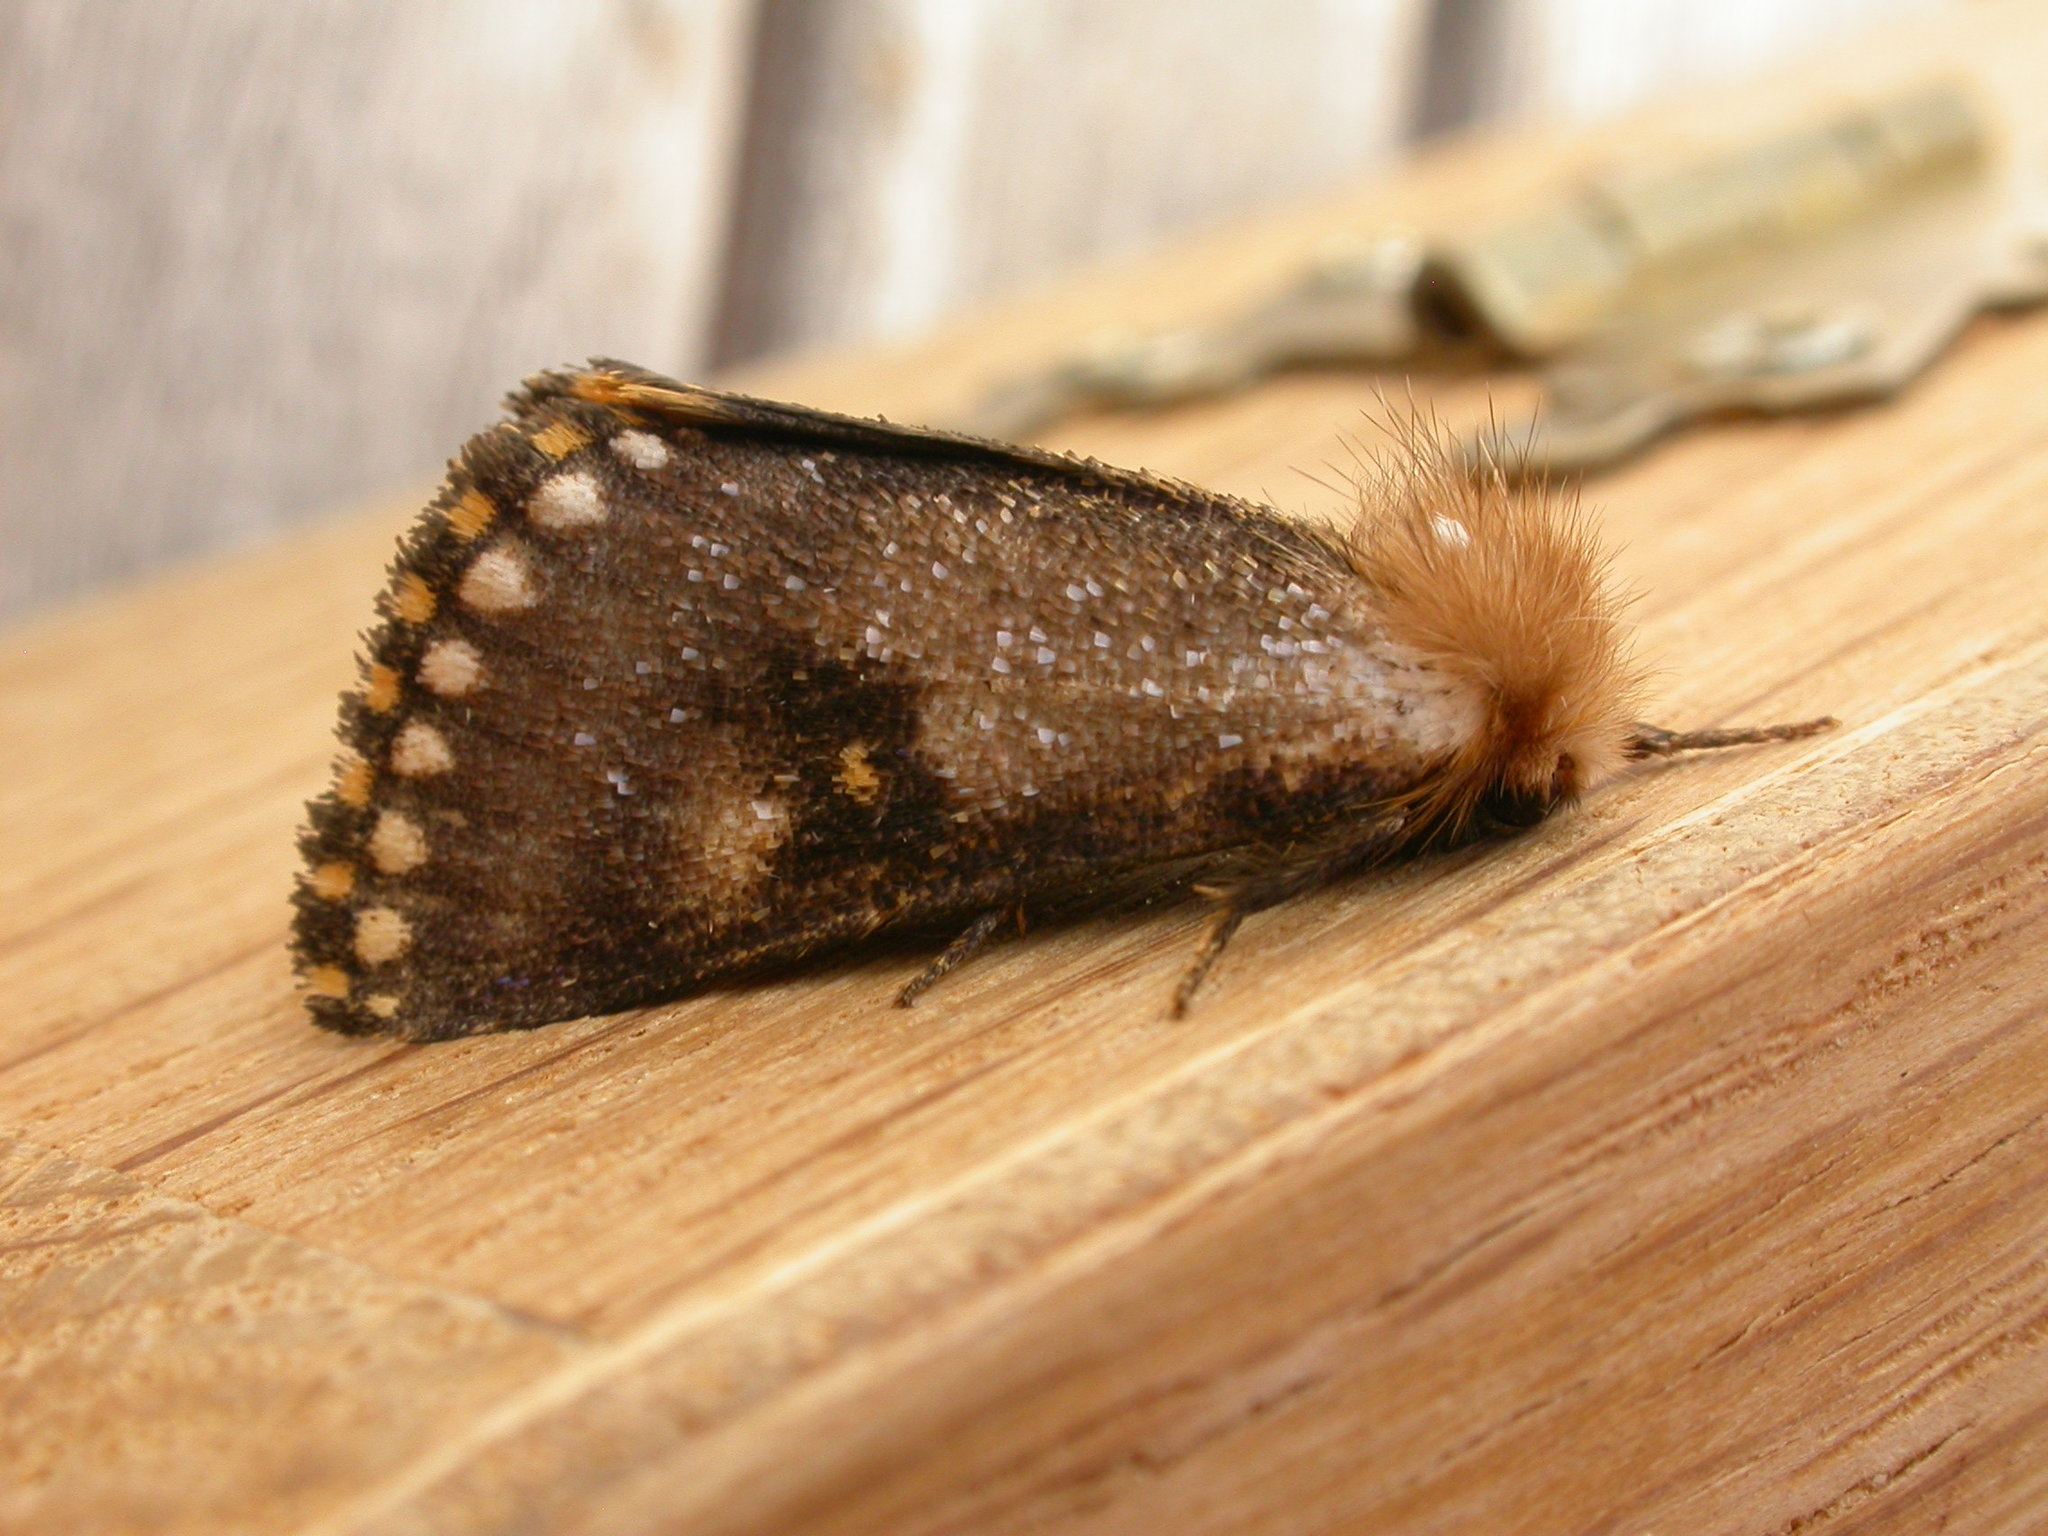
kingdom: Animalia
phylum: Arthropoda
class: Insecta
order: Lepidoptera
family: Notodontidae
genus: Epicoma
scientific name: Epicoma contristis
